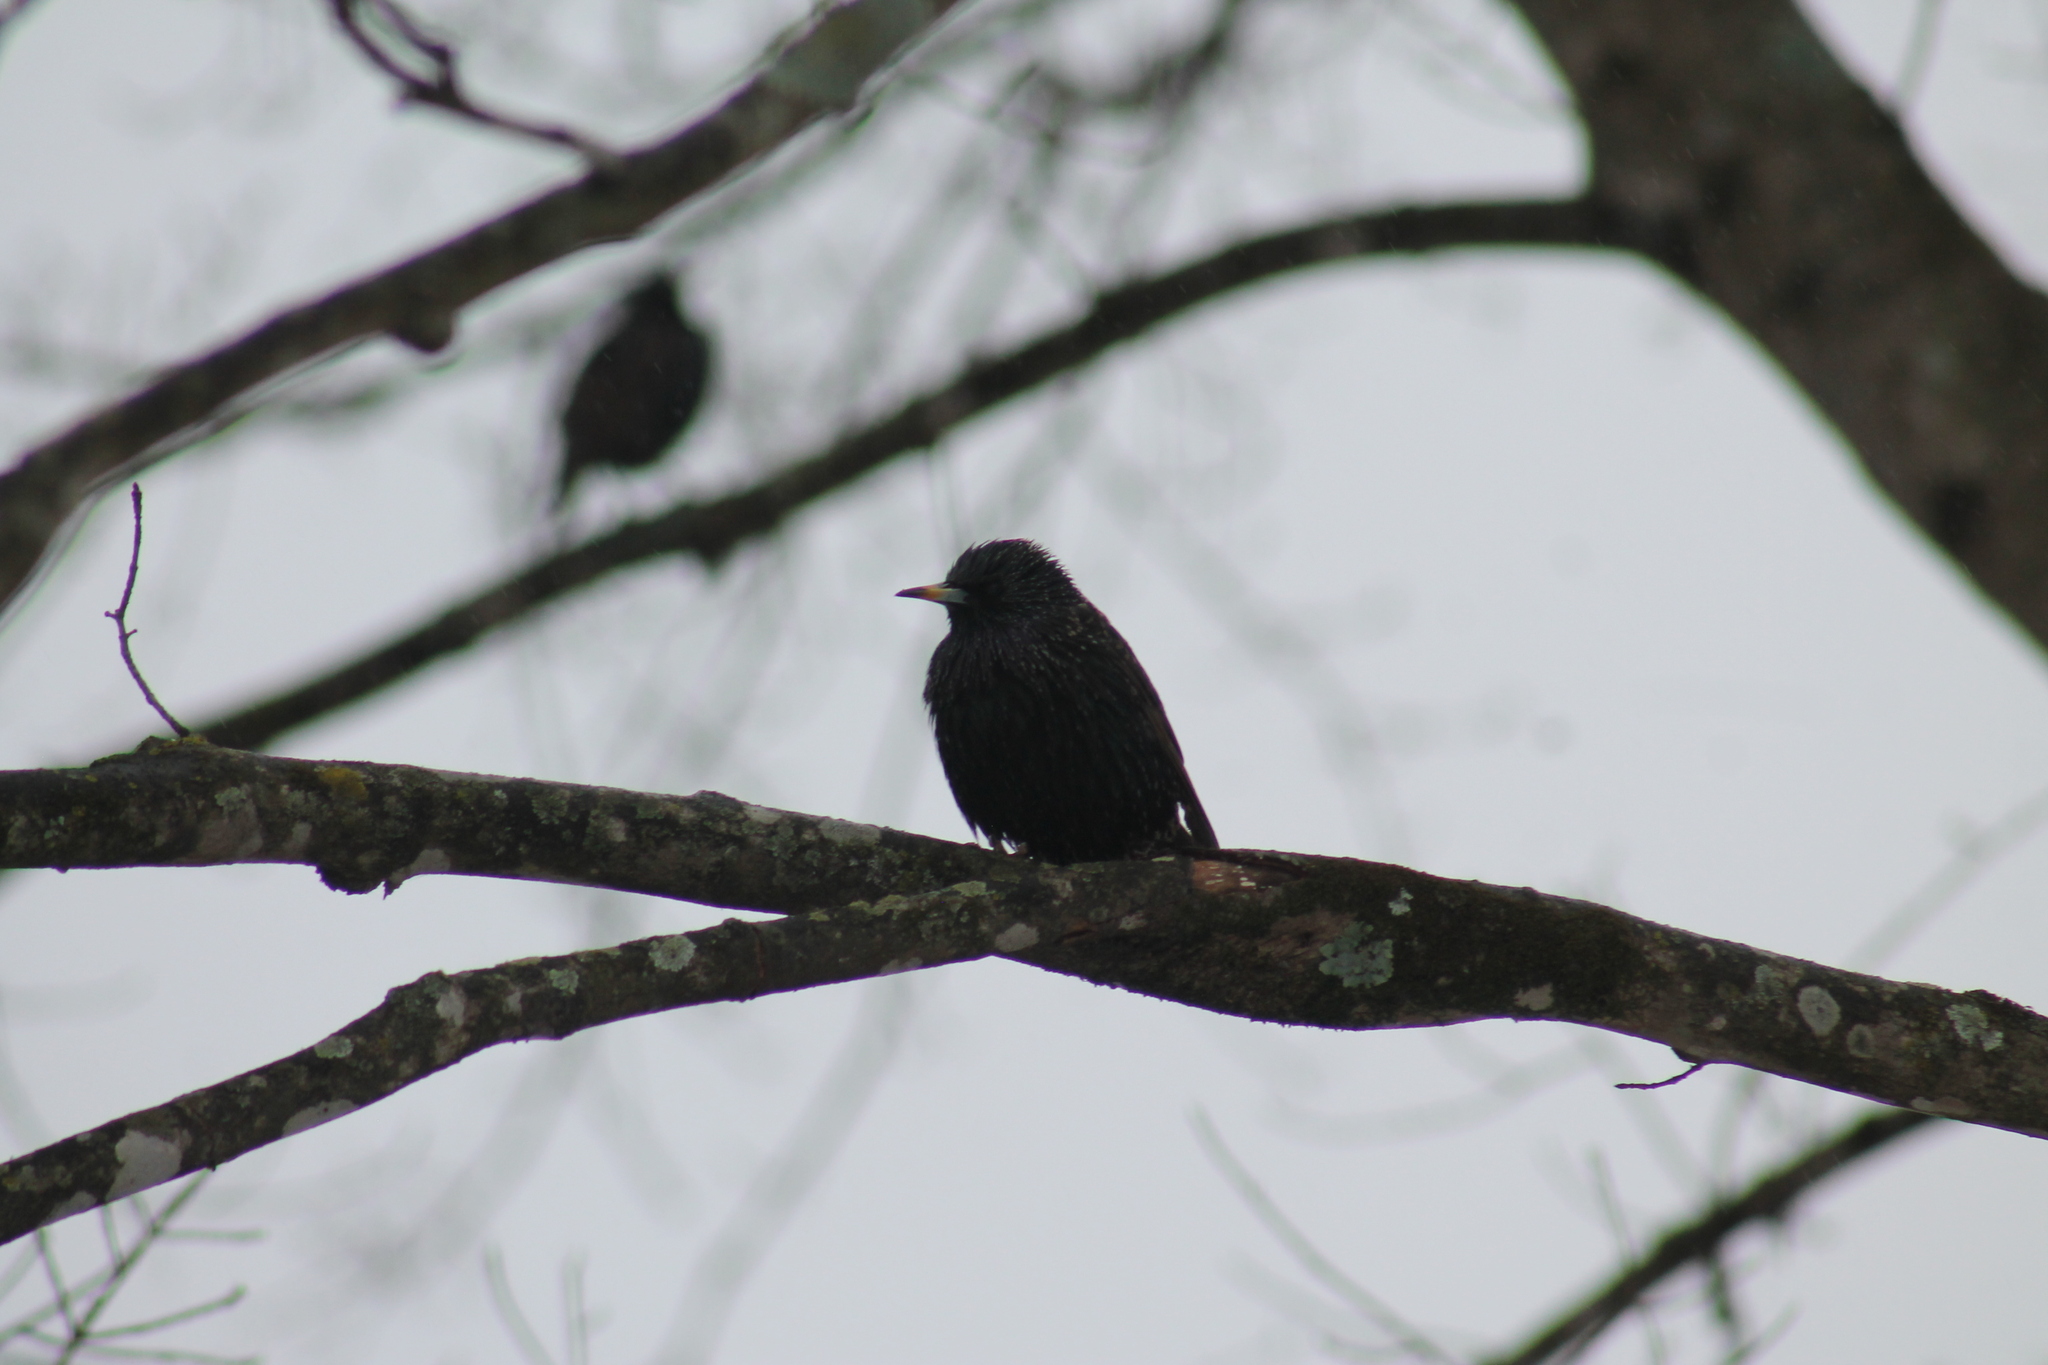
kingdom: Animalia
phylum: Chordata
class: Aves
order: Passeriformes
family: Sturnidae
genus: Sturnus
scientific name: Sturnus vulgaris
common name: Common starling
